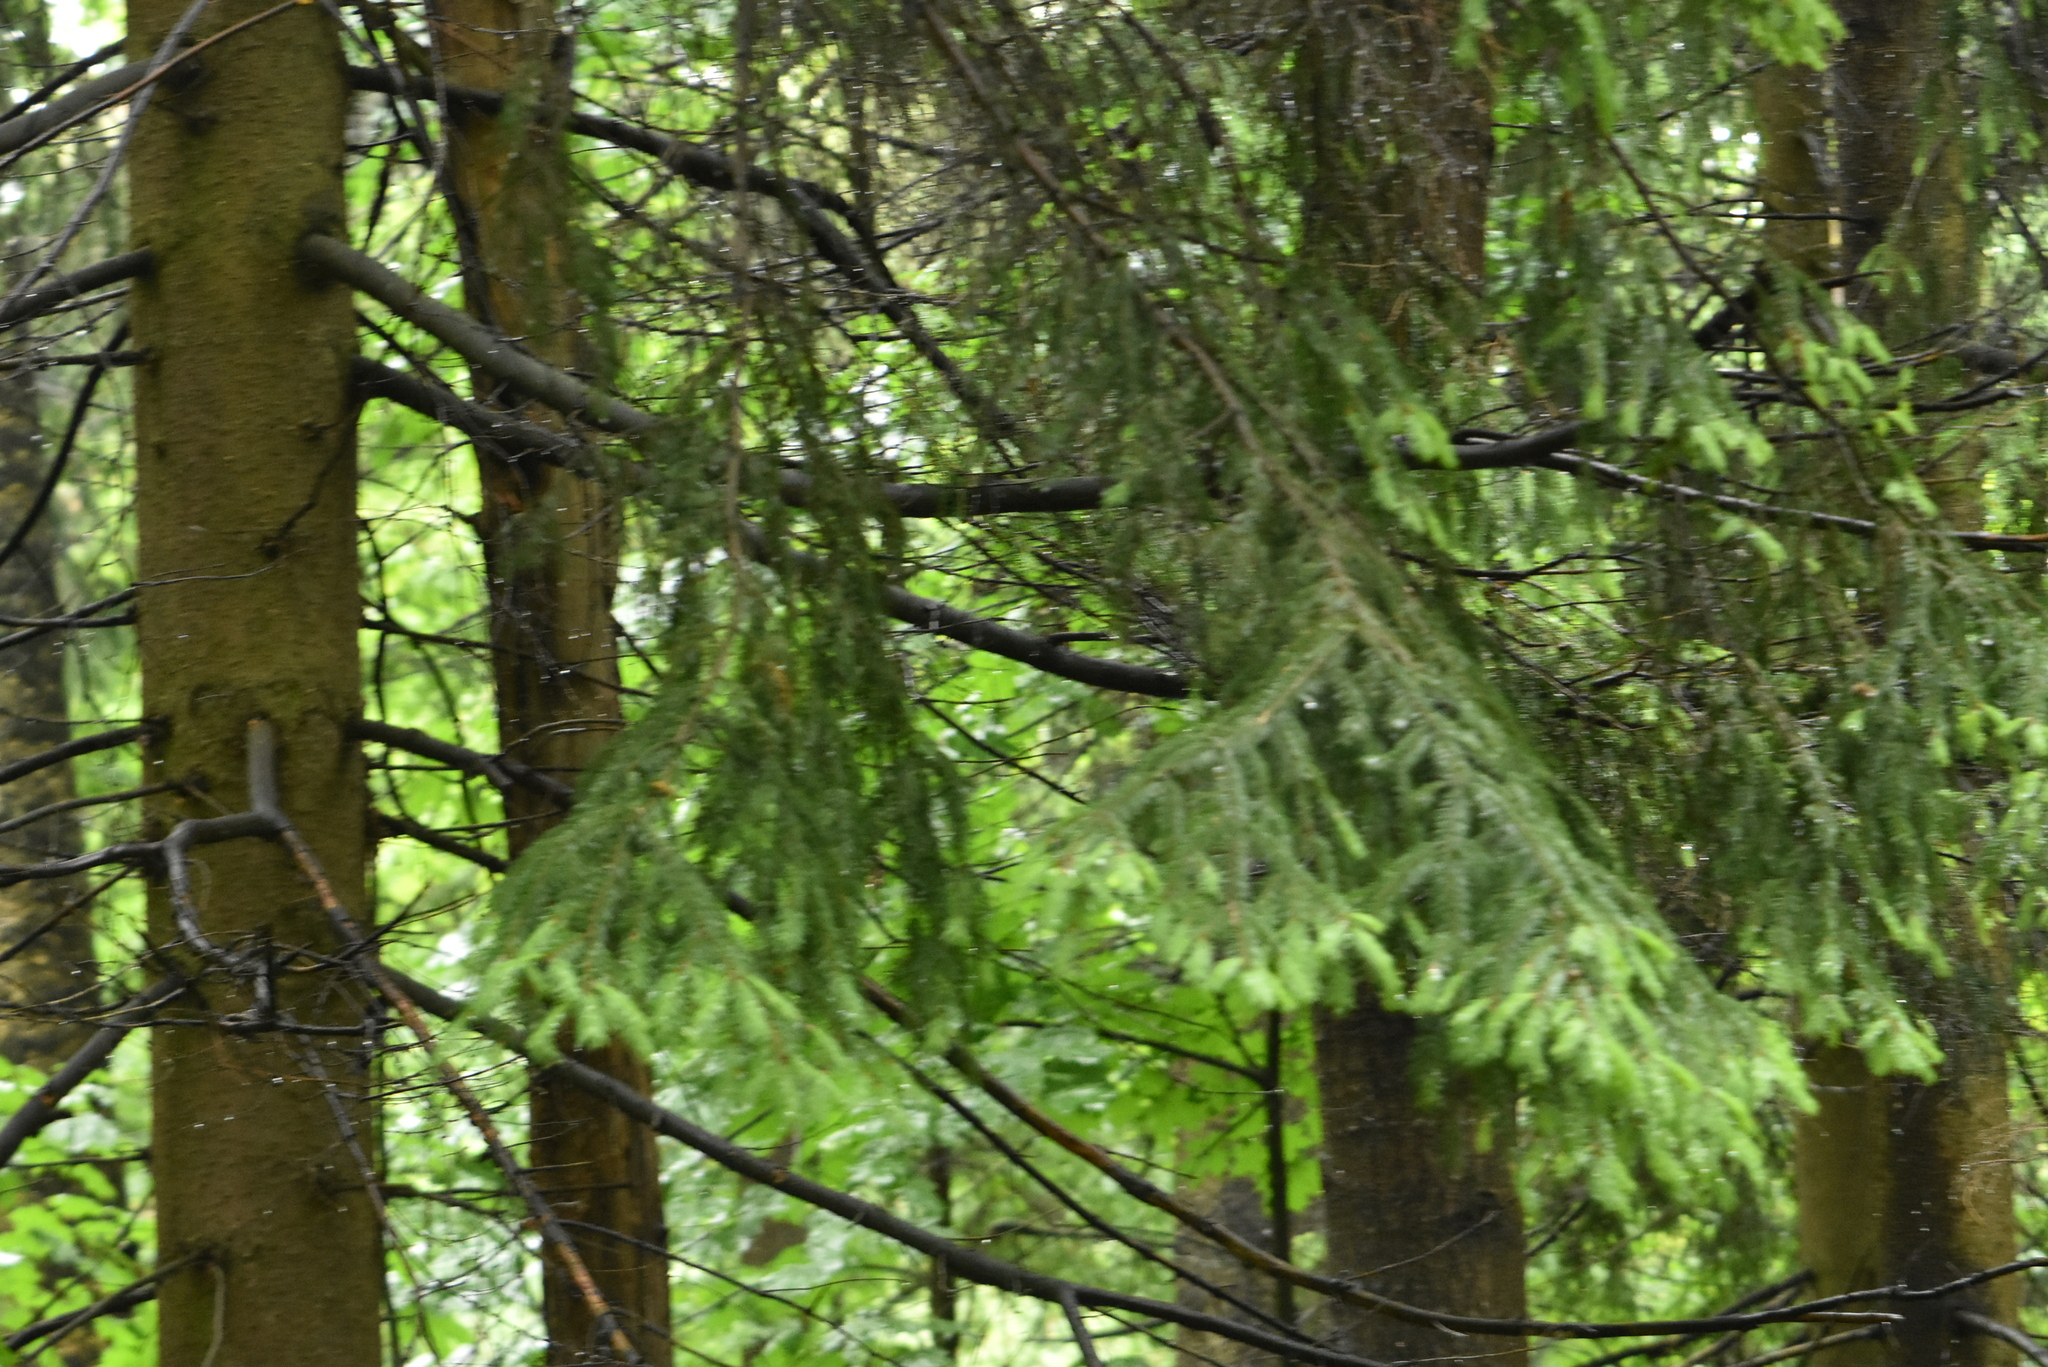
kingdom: Plantae
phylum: Tracheophyta
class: Pinopsida
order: Pinales
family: Pinaceae
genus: Picea
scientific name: Picea abies
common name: Norway spruce
